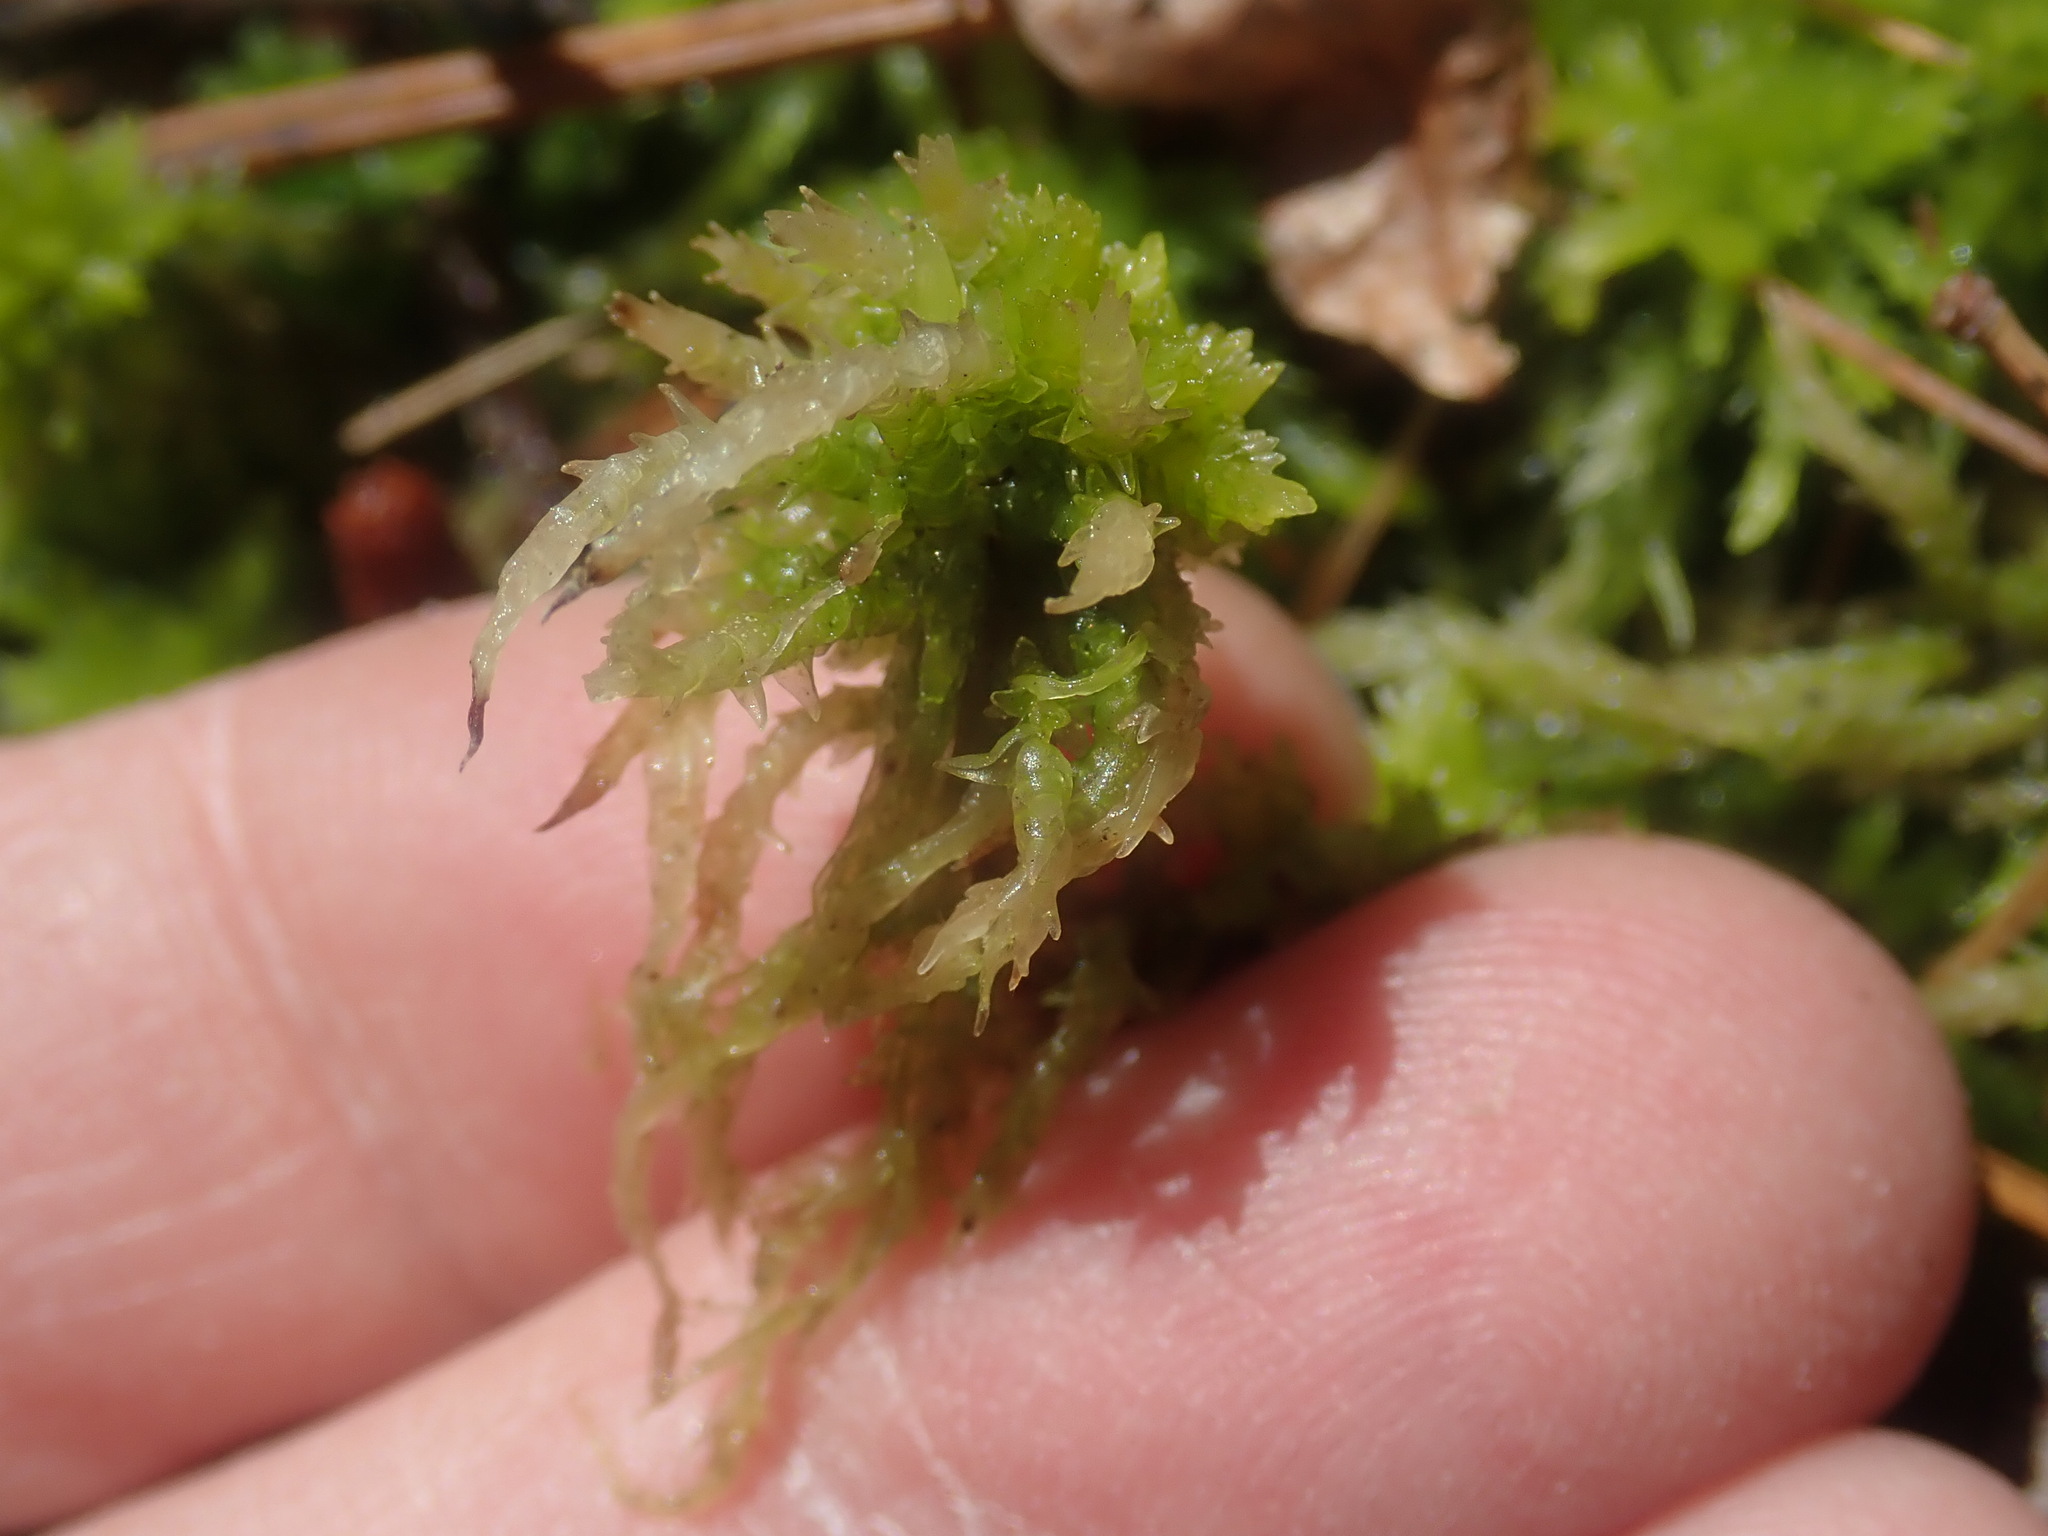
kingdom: Plantae
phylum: Bryophyta
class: Sphagnopsida
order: Sphagnales
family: Sphagnaceae
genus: Sphagnum
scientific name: Sphagnum
